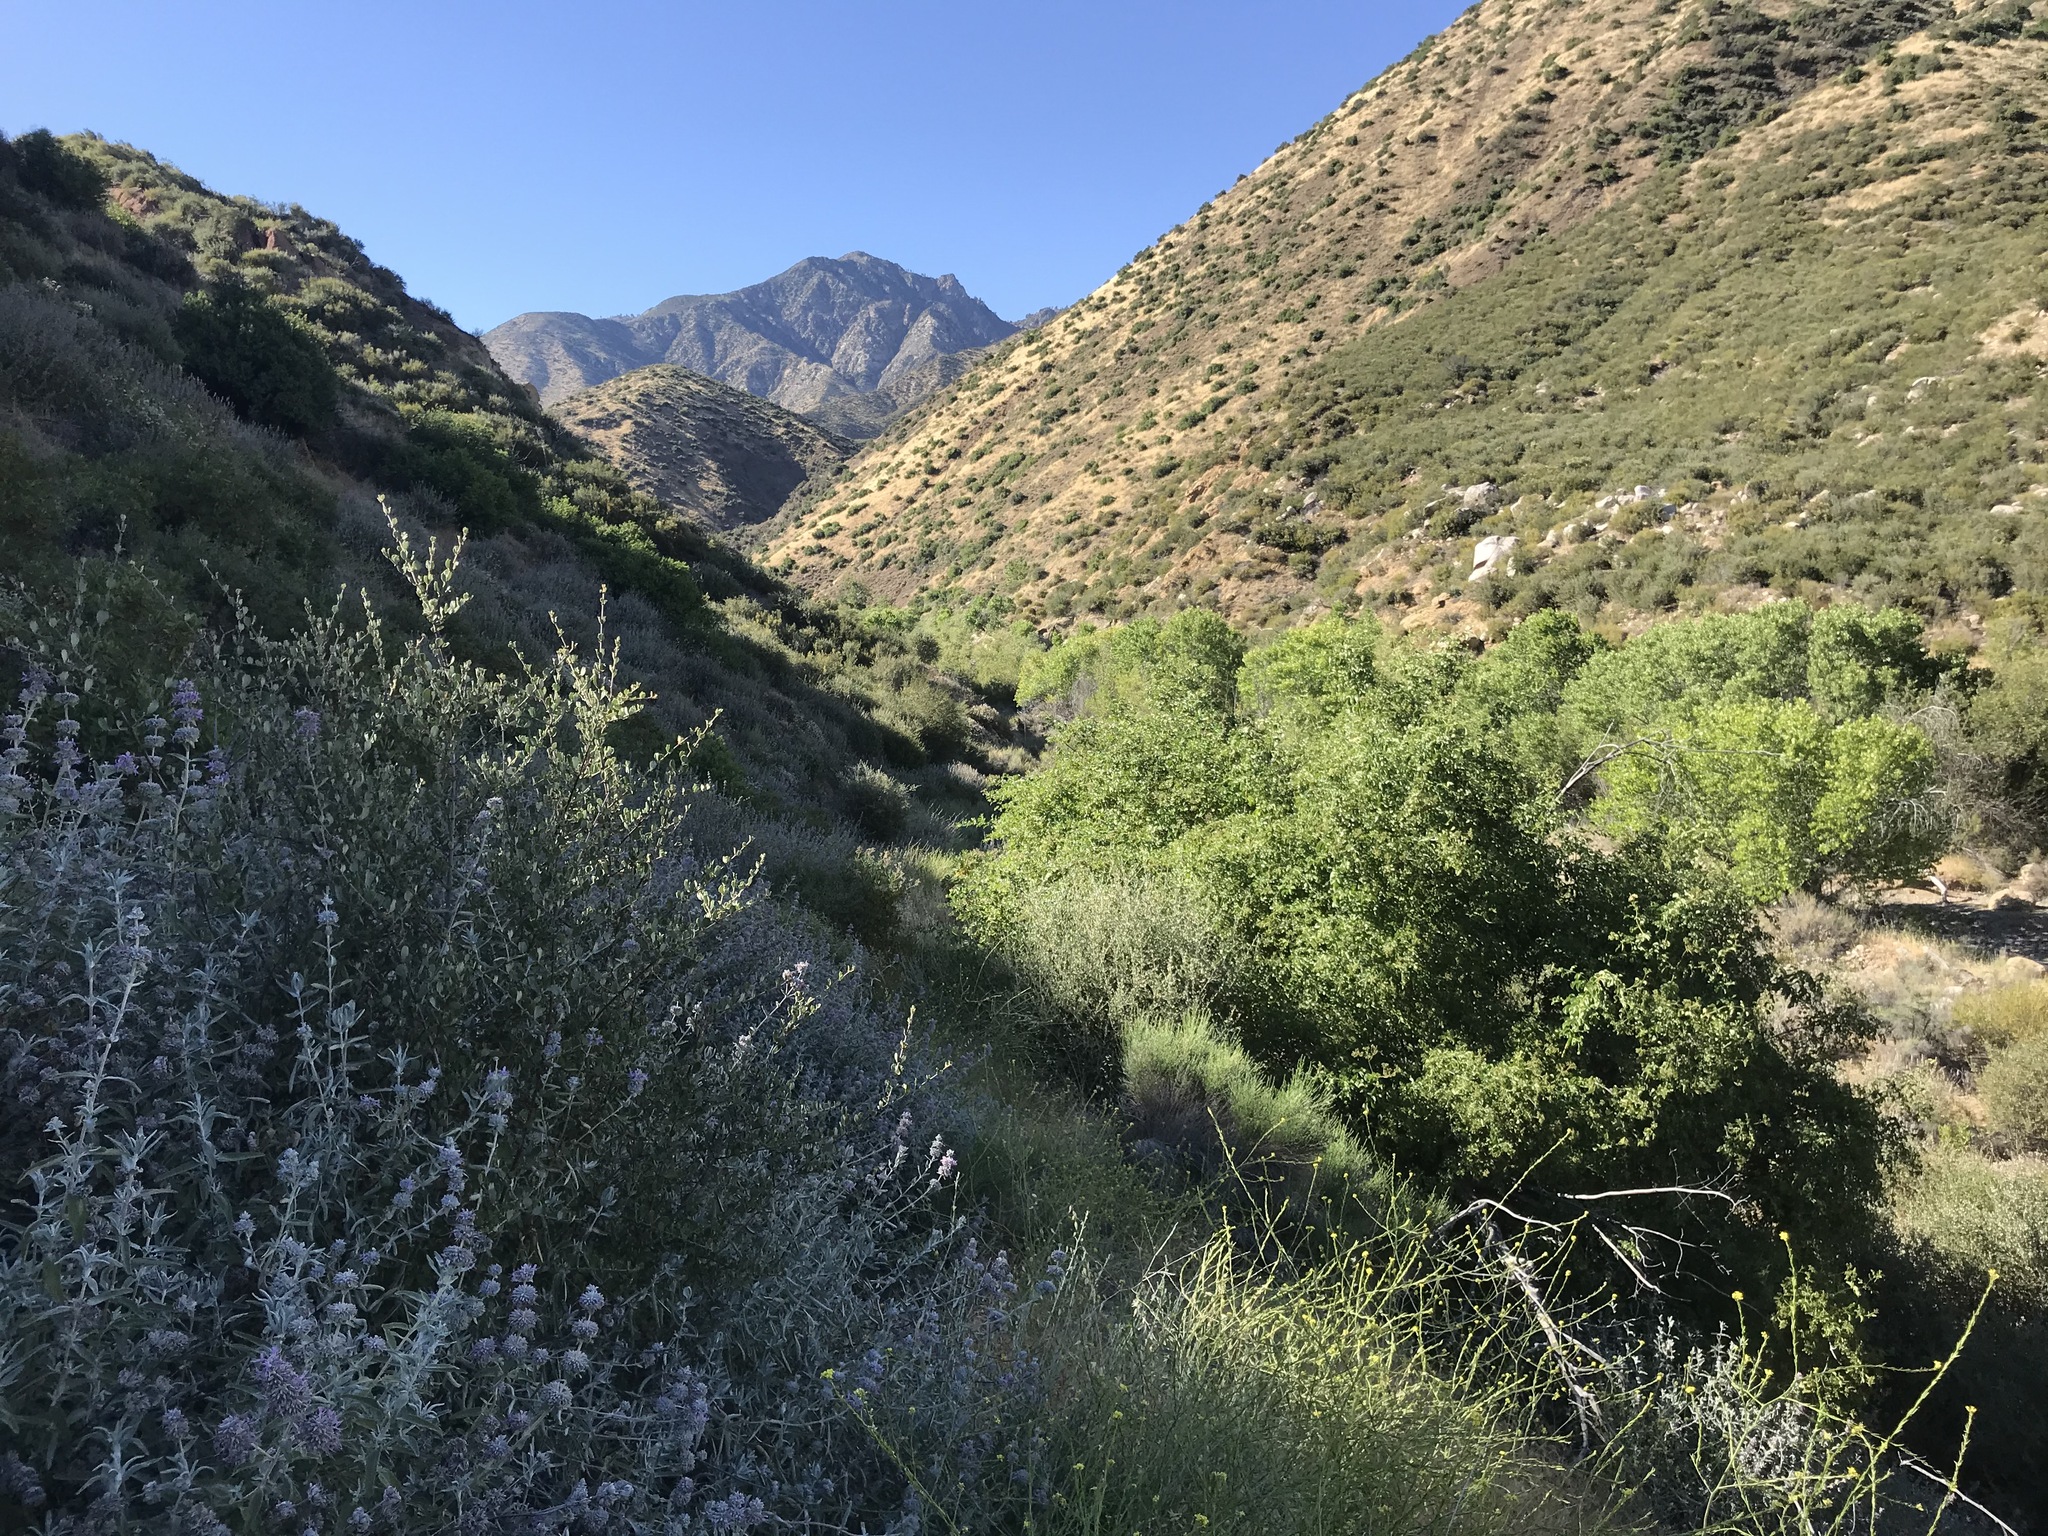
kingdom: Plantae
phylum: Tracheophyta
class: Magnoliopsida
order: Lamiales
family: Lamiaceae
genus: Salvia
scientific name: Salvia leucophylla
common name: Purple sage
